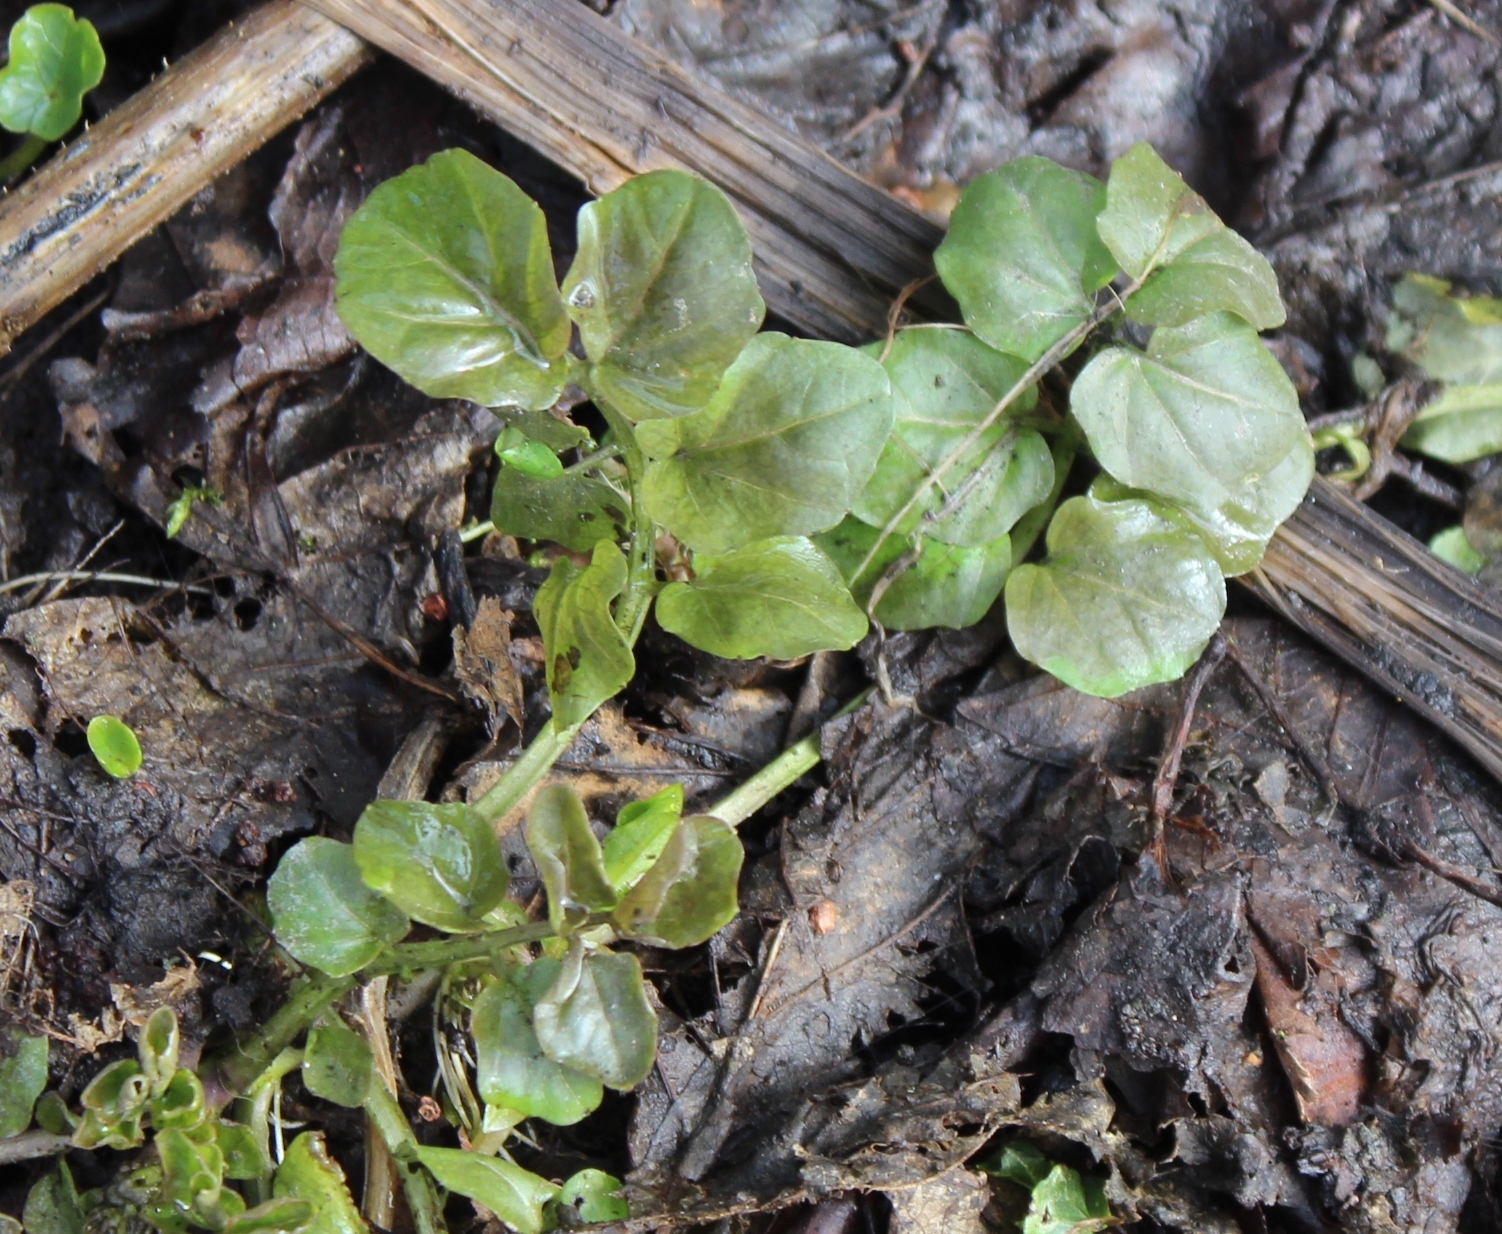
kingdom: Plantae
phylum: Tracheophyta
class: Magnoliopsida
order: Brassicales
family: Brassicaceae
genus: Cardamine
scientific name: Cardamine amara
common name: Large bitter-cress
